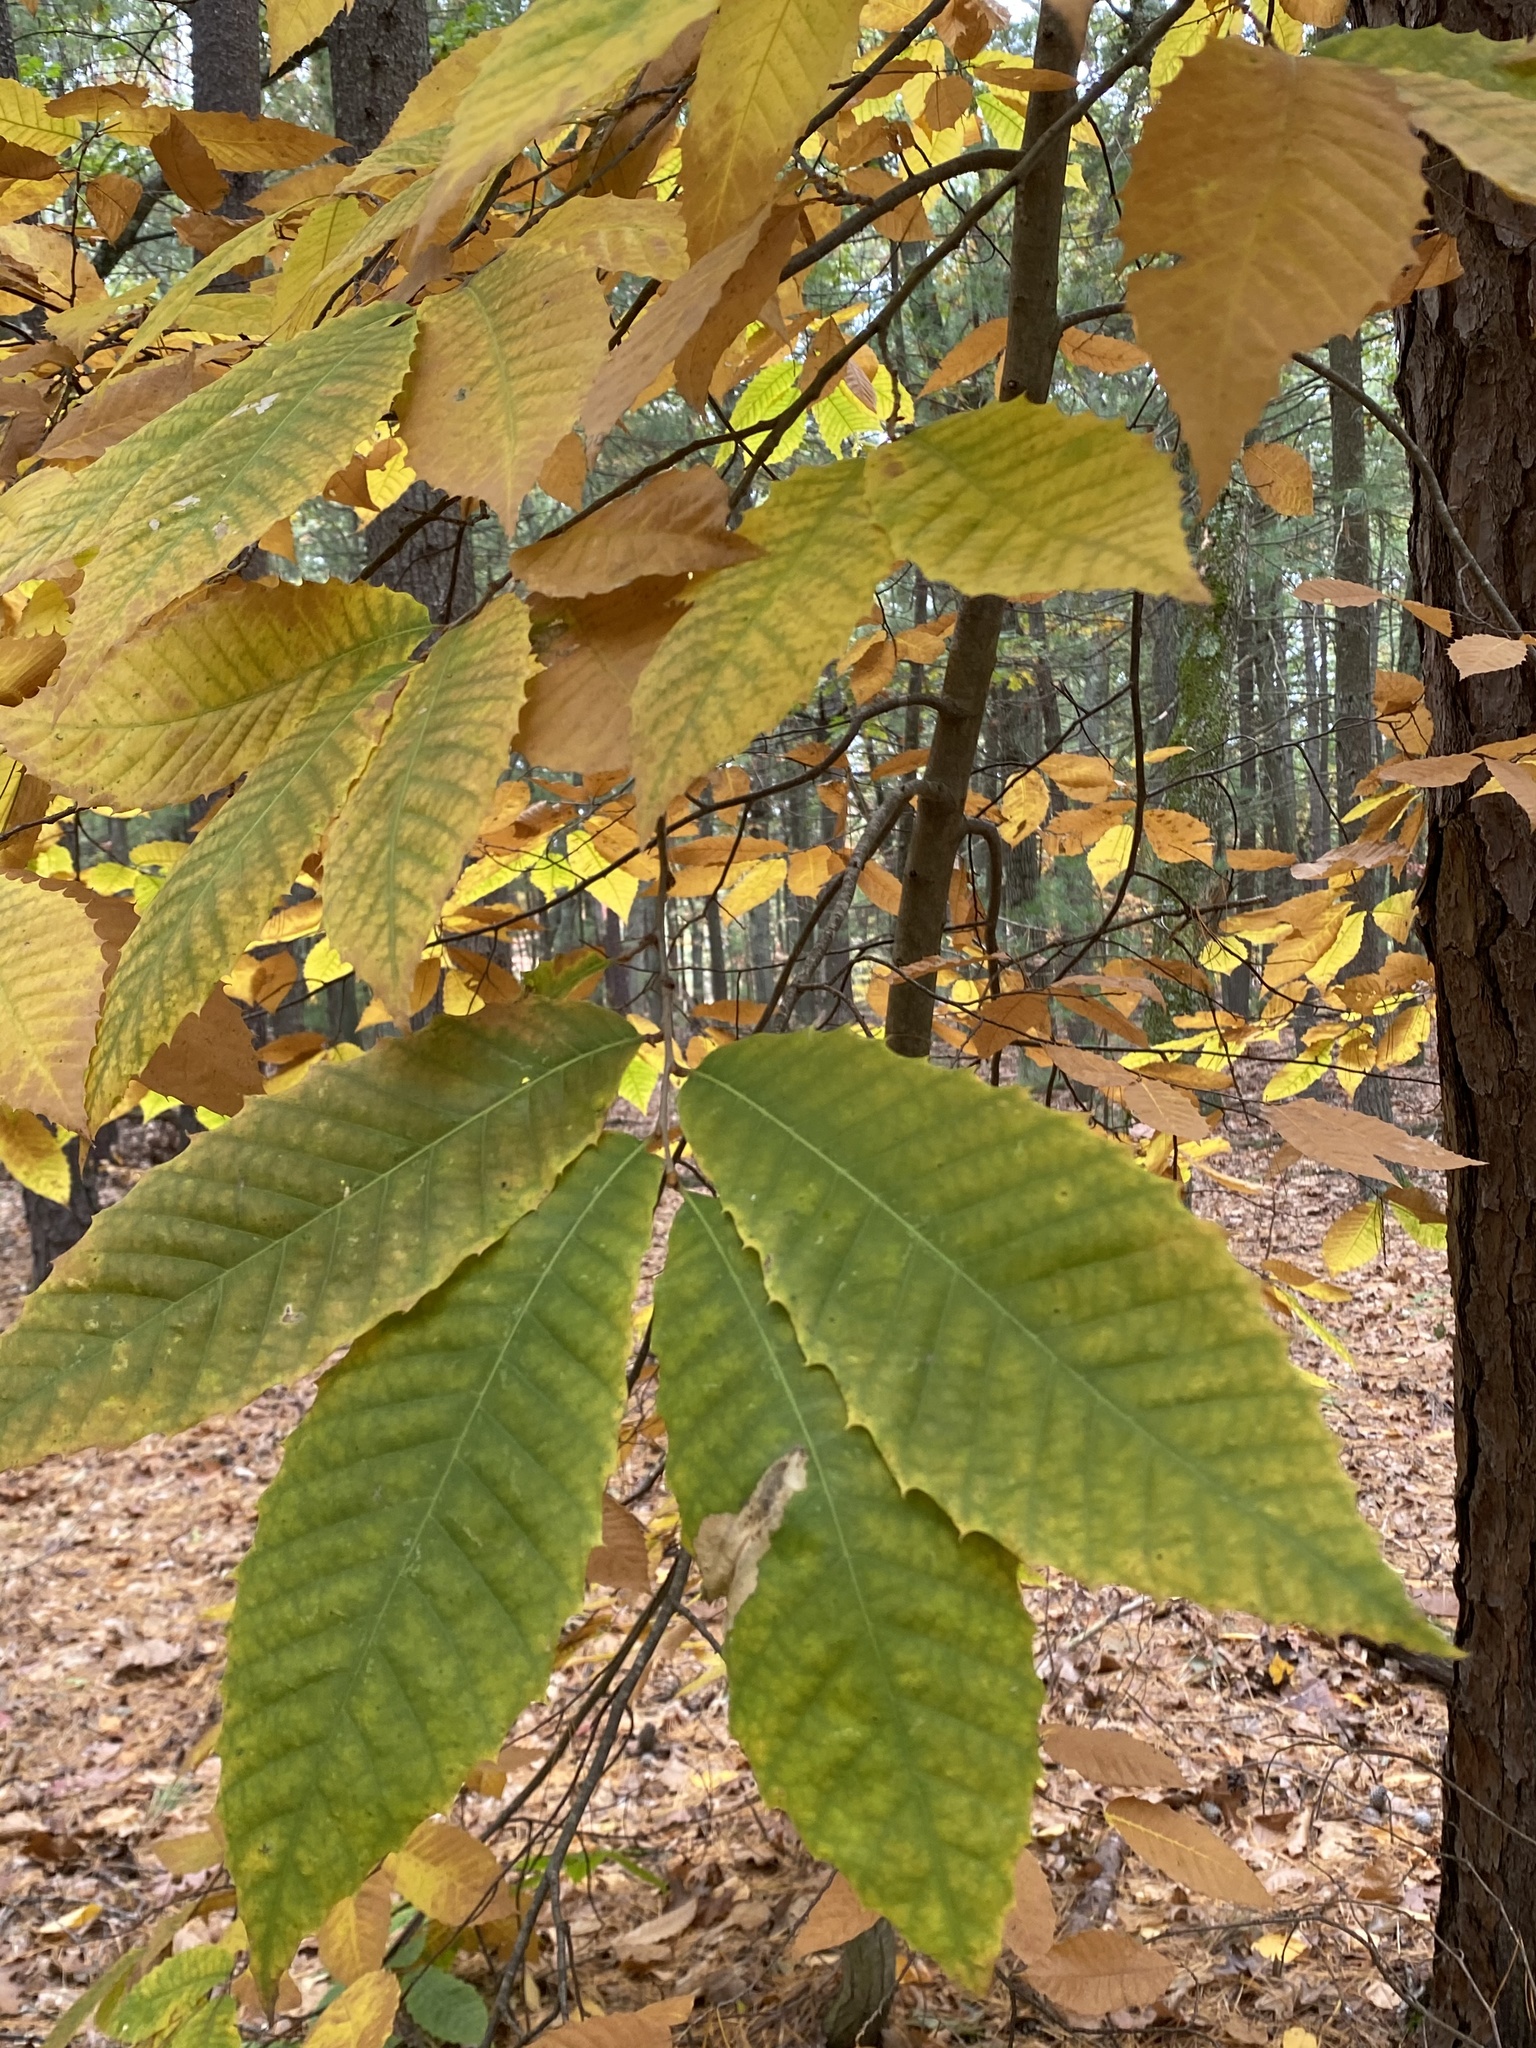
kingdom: Plantae
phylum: Tracheophyta
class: Magnoliopsida
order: Fagales
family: Fagaceae
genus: Castanea
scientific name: Castanea dentata
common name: American chestnut
